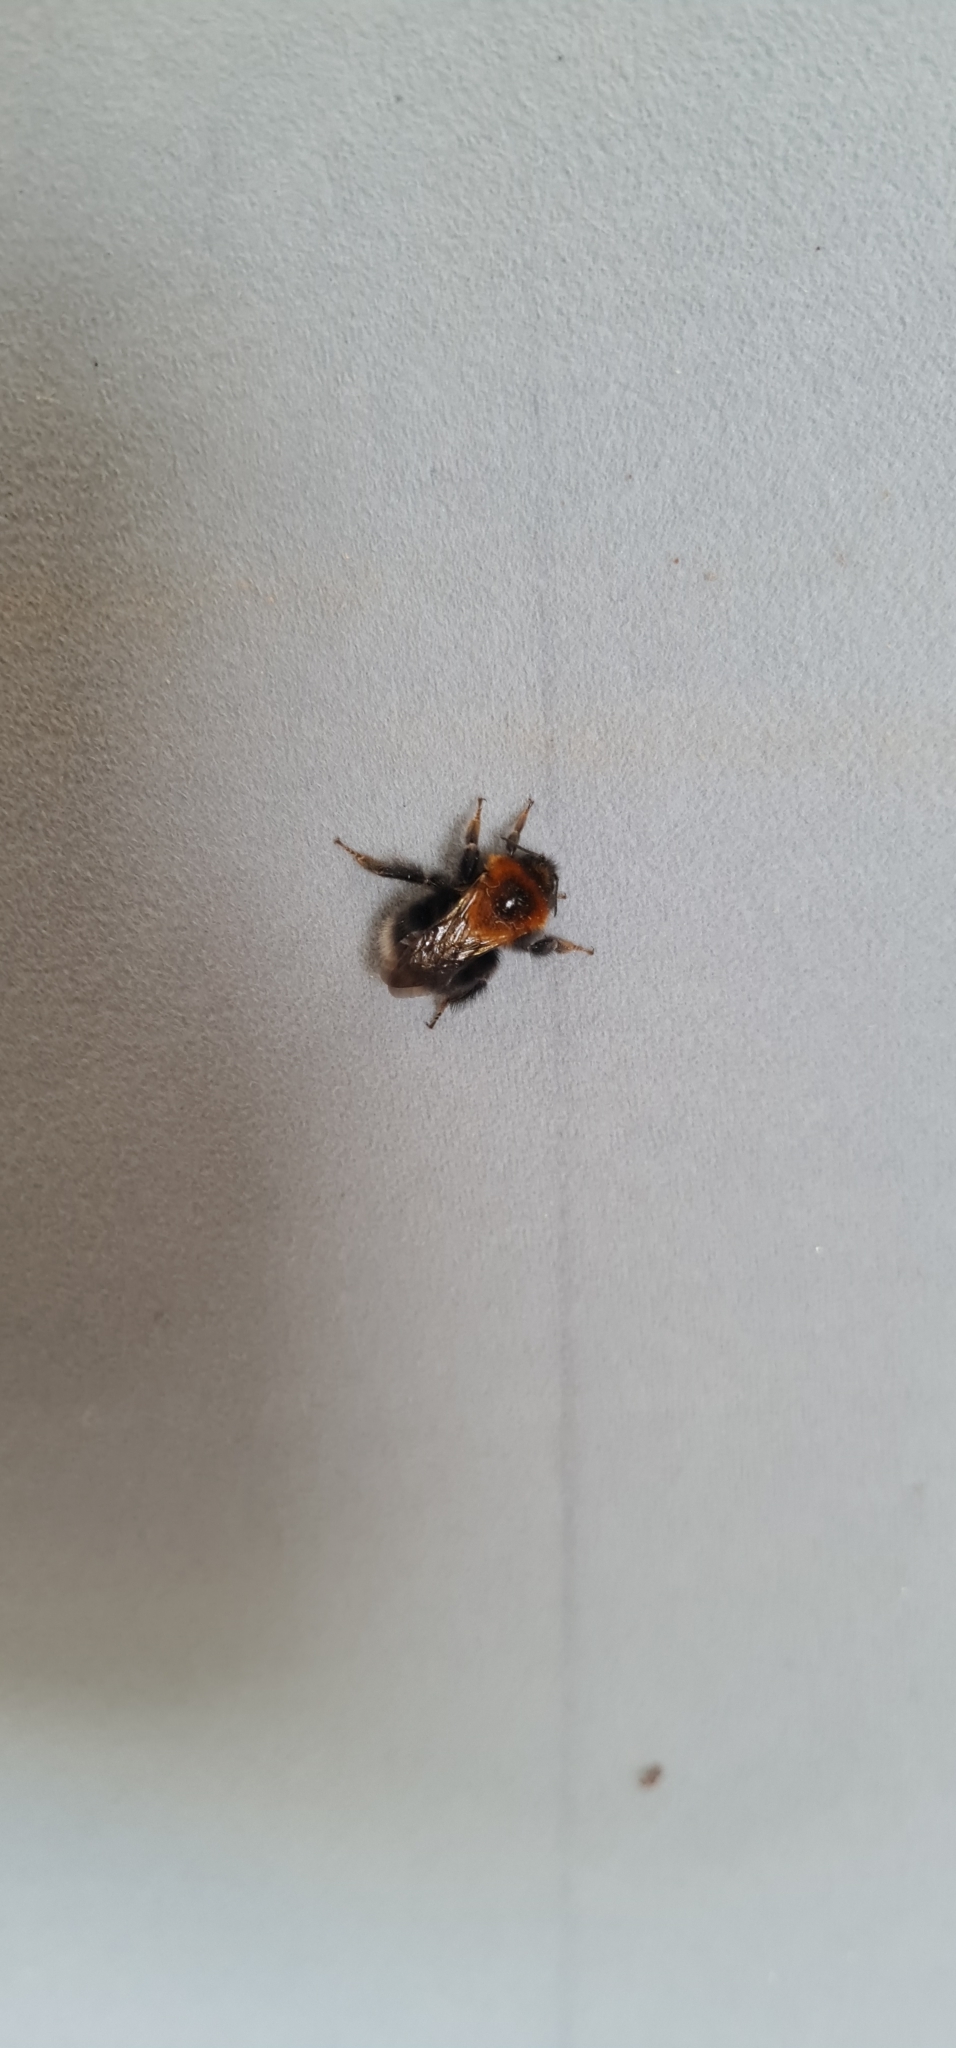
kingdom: Animalia
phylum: Arthropoda
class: Insecta
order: Hymenoptera
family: Apidae
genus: Bombus
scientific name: Bombus hypnorum
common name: New garden bumblebee
